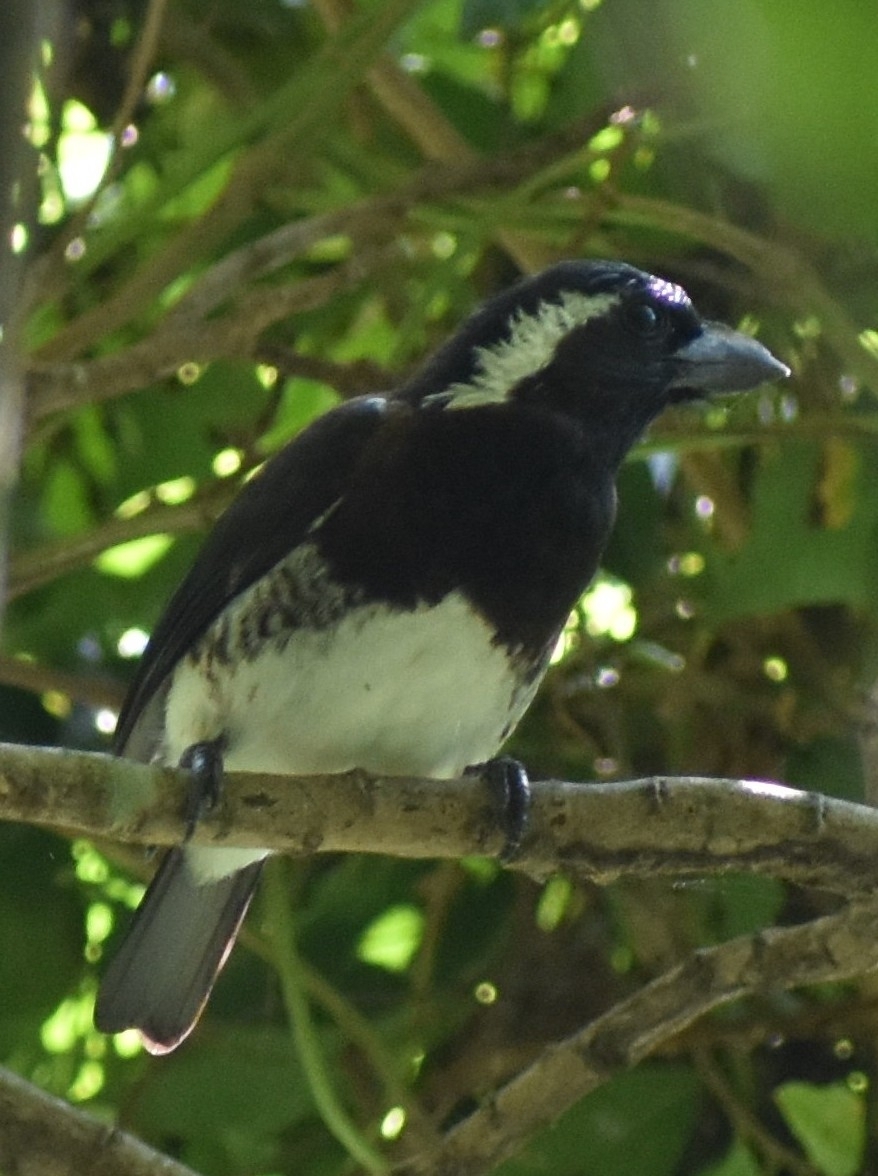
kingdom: Animalia
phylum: Chordata
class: Aves
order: Piciformes
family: Lybiidae
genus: Stactolaema
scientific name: Stactolaema leucotis
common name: White-eared barbet
